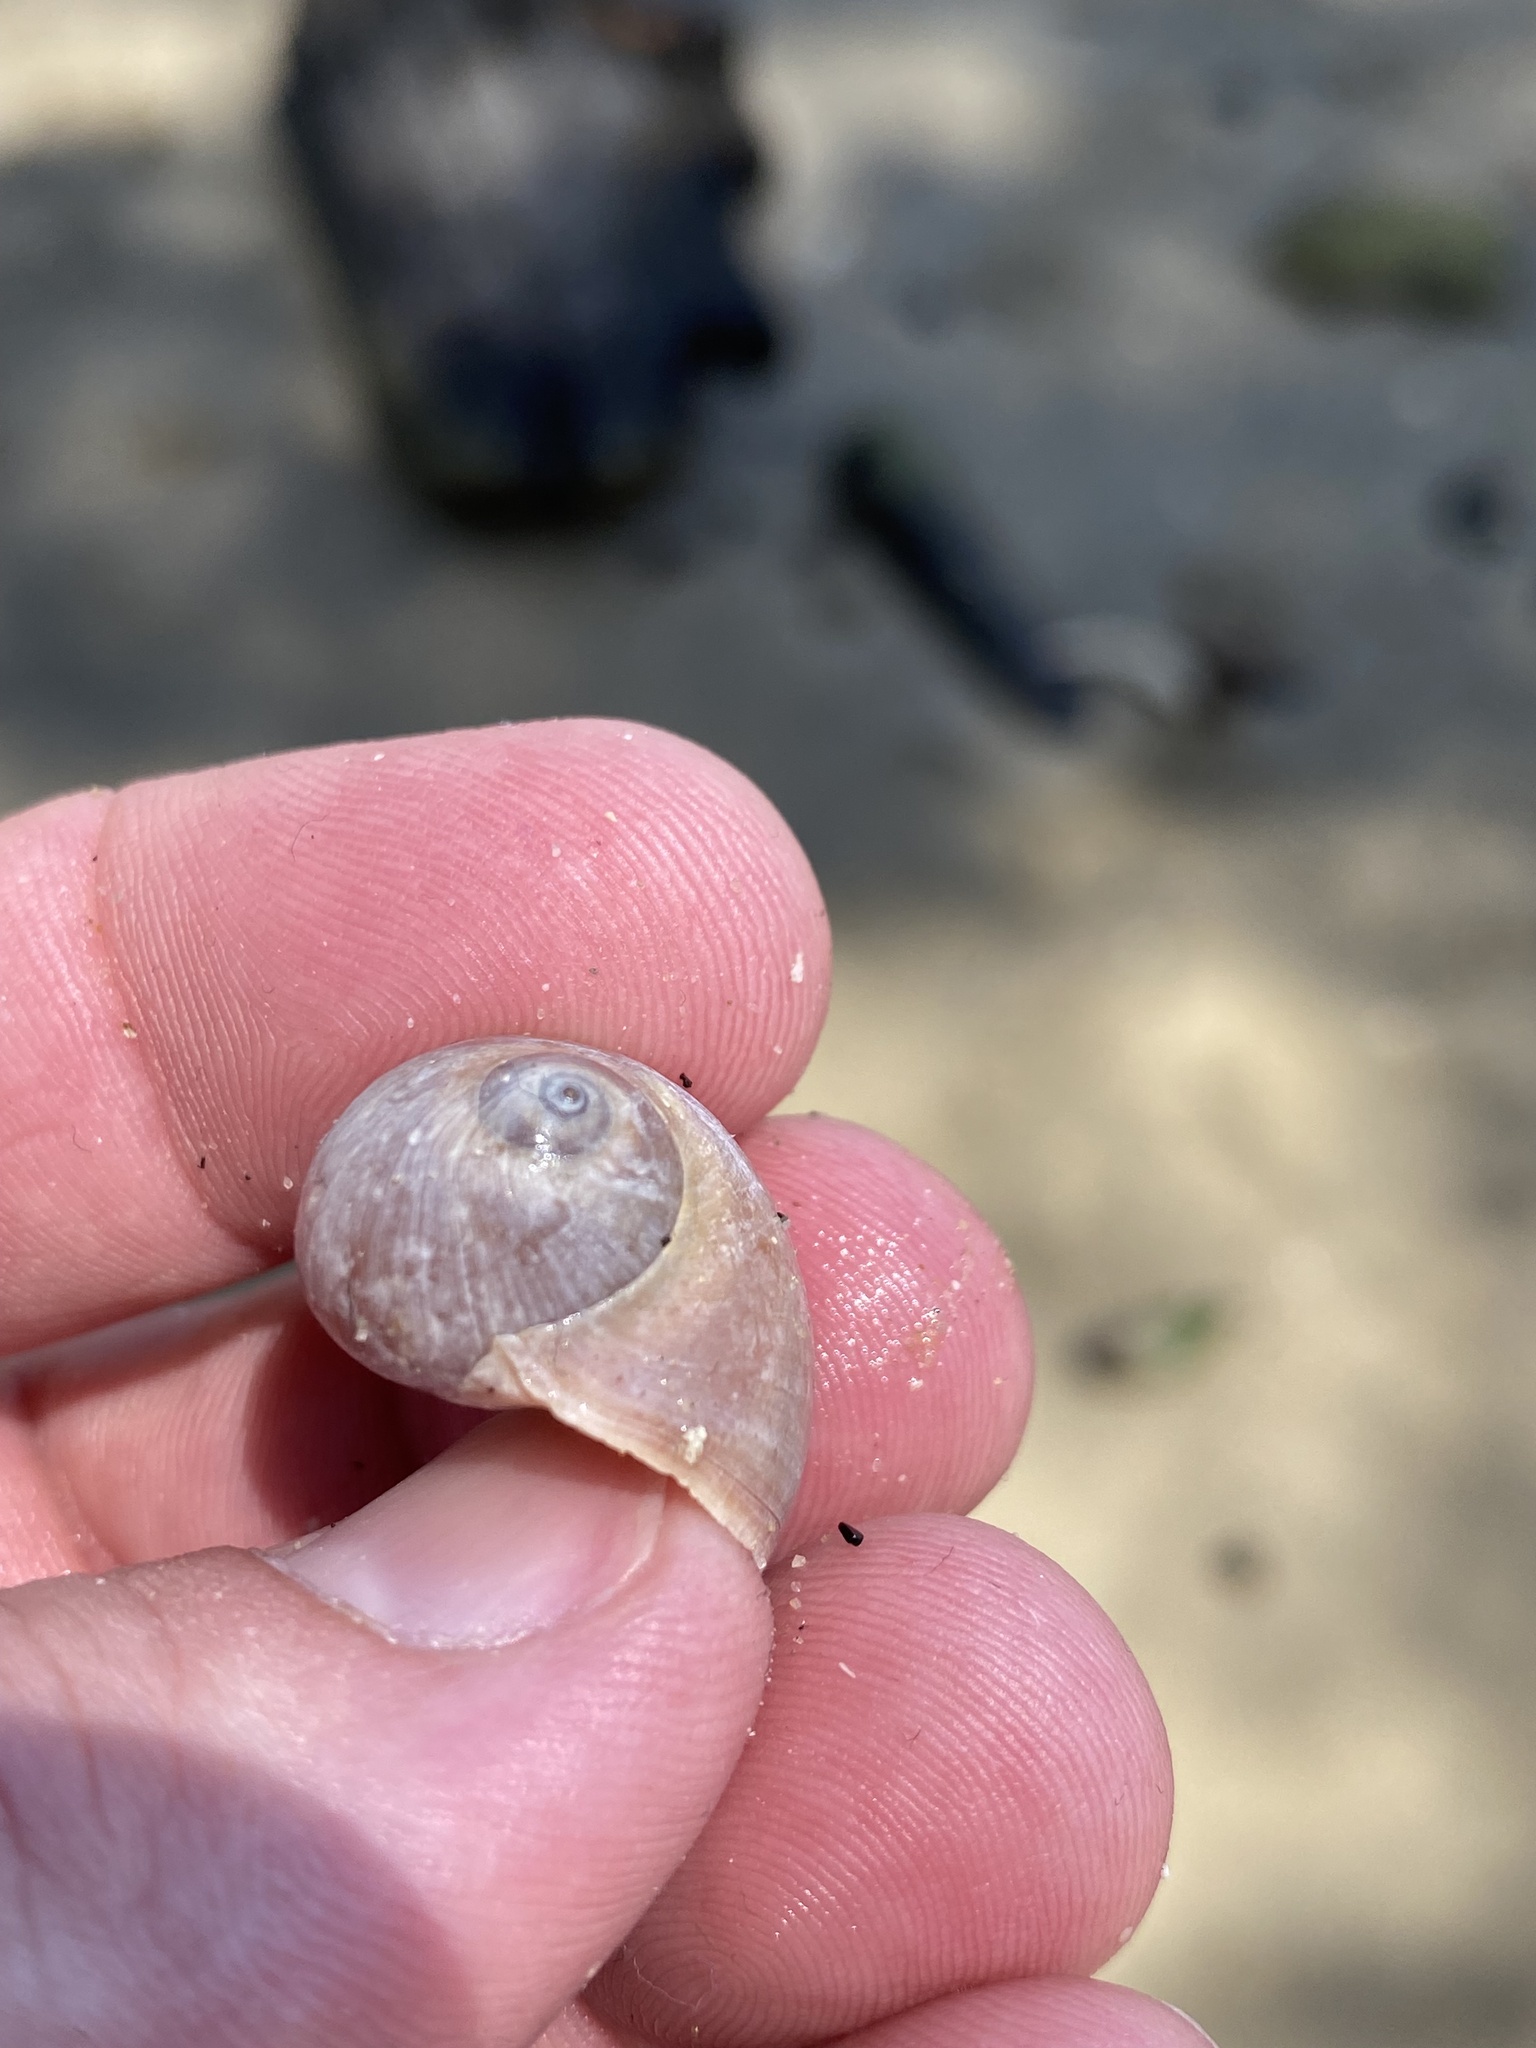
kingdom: Animalia
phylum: Mollusca
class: Gastropoda
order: Littorinimorpha
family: Naticidae
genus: Conuber
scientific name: Conuber sordidum
